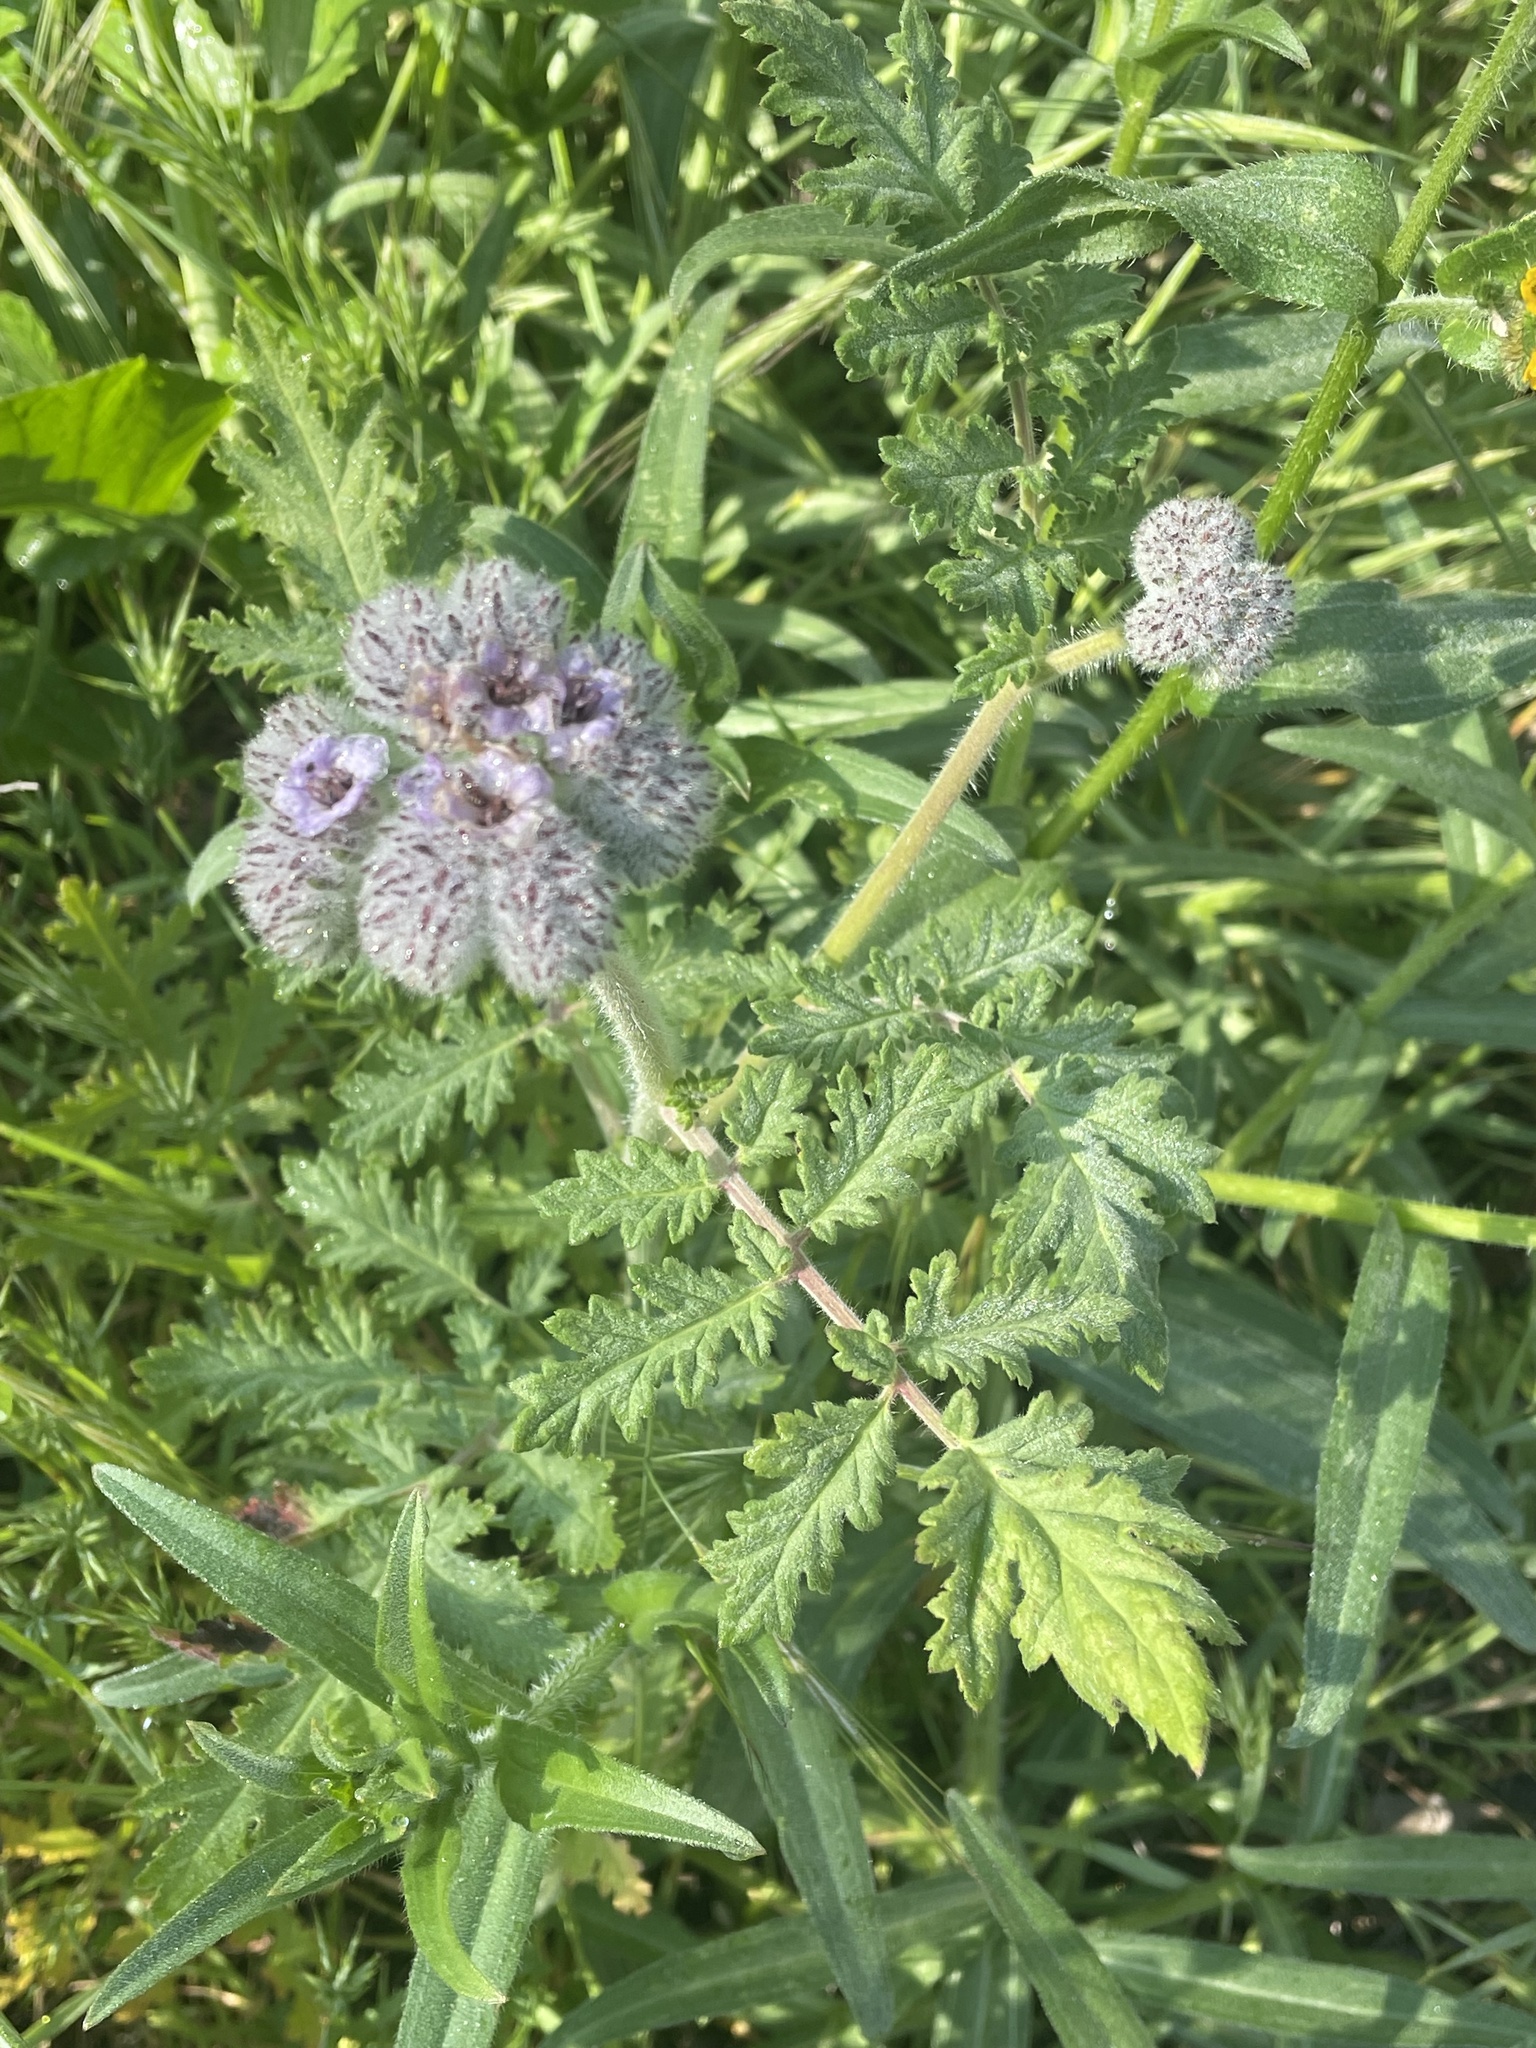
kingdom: Plantae
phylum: Tracheophyta
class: Magnoliopsida
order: Boraginales
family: Hydrophyllaceae
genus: Phacelia
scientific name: Phacelia hubbyi
